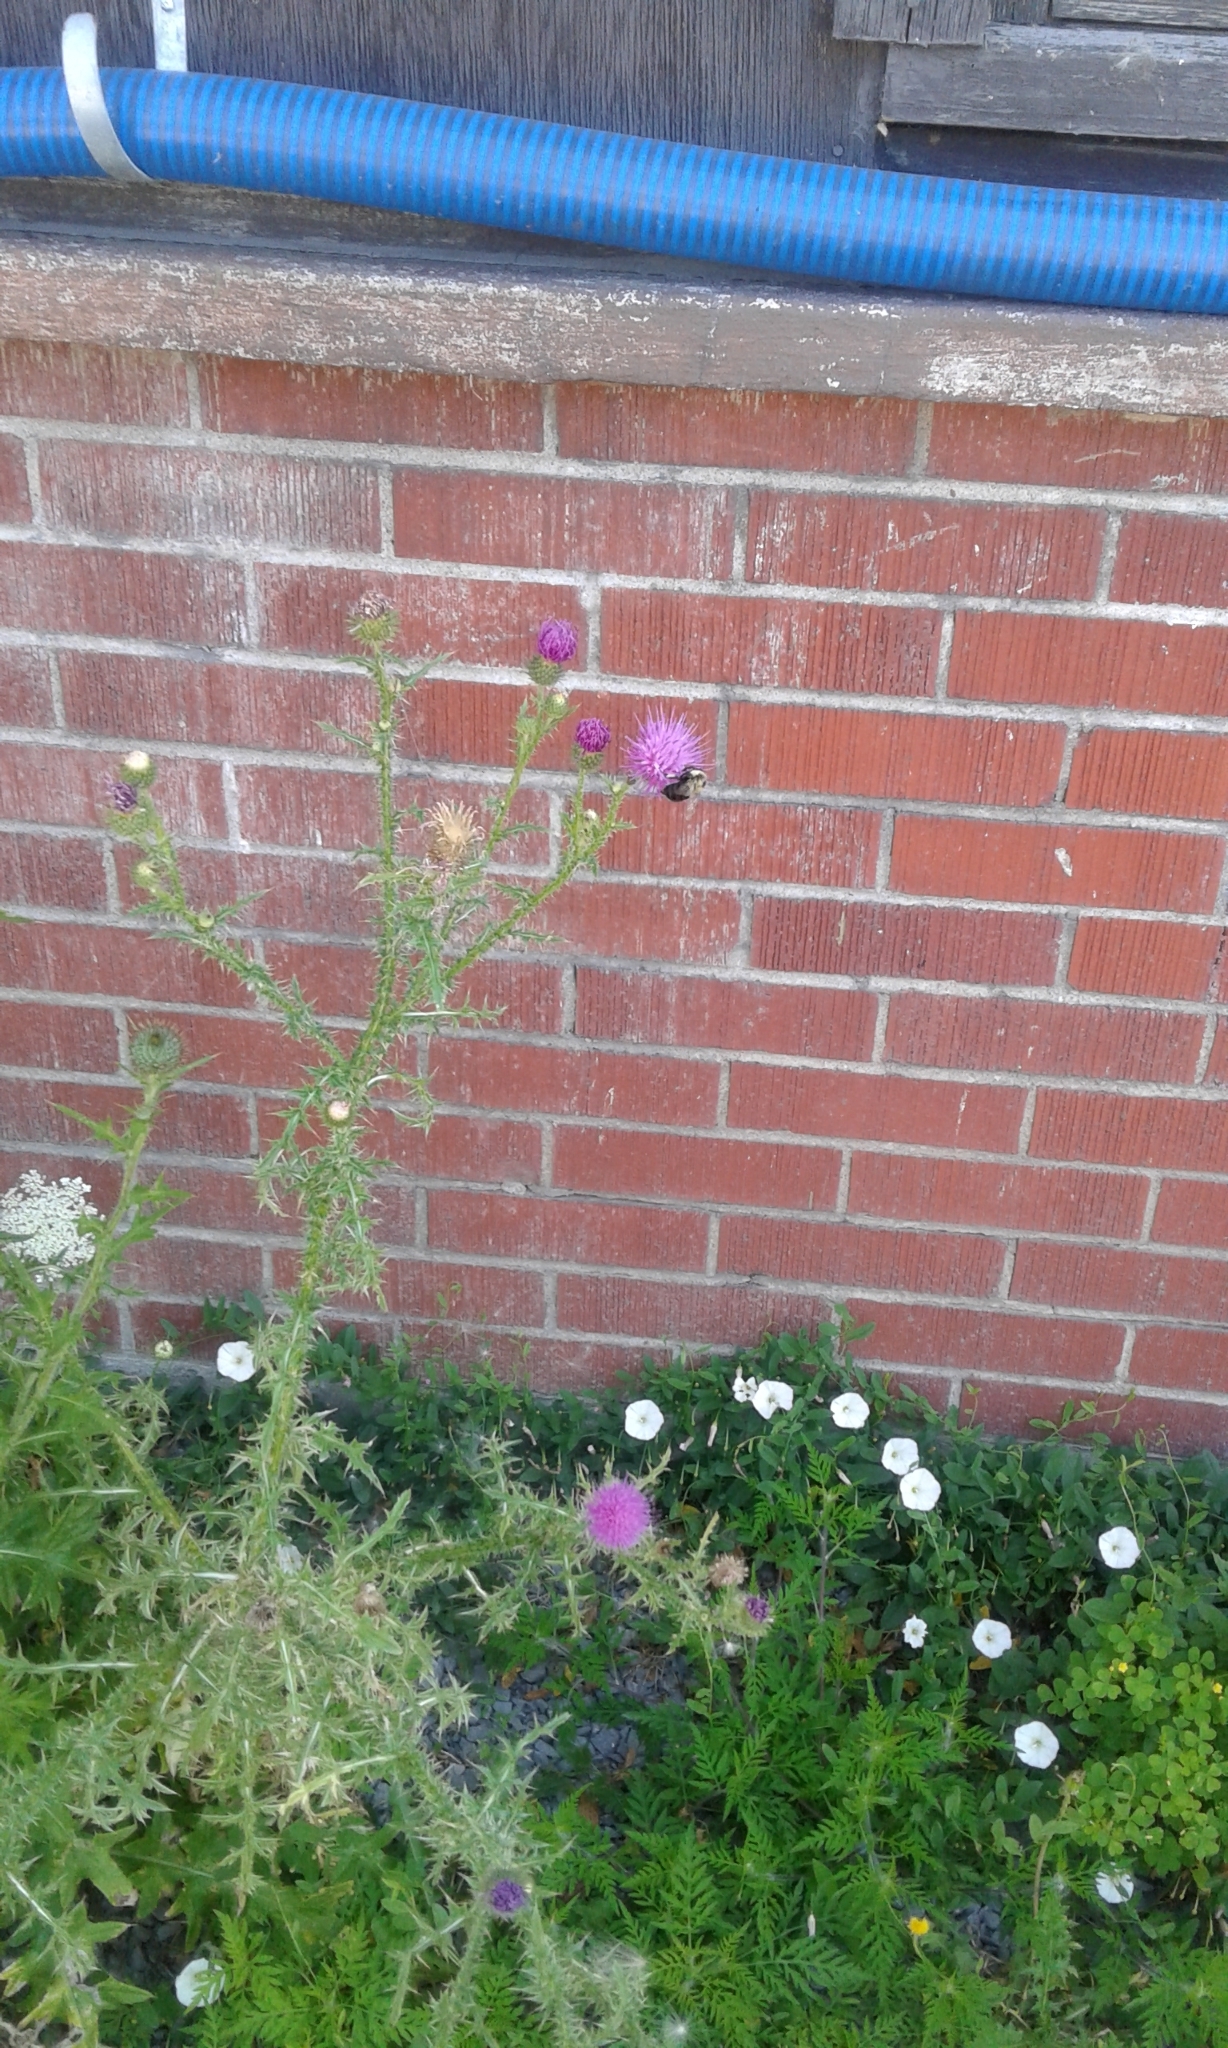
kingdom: Animalia
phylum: Arthropoda
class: Insecta
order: Hymenoptera
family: Apidae
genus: Bombus
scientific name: Bombus impatiens
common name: Common eastern bumble bee
